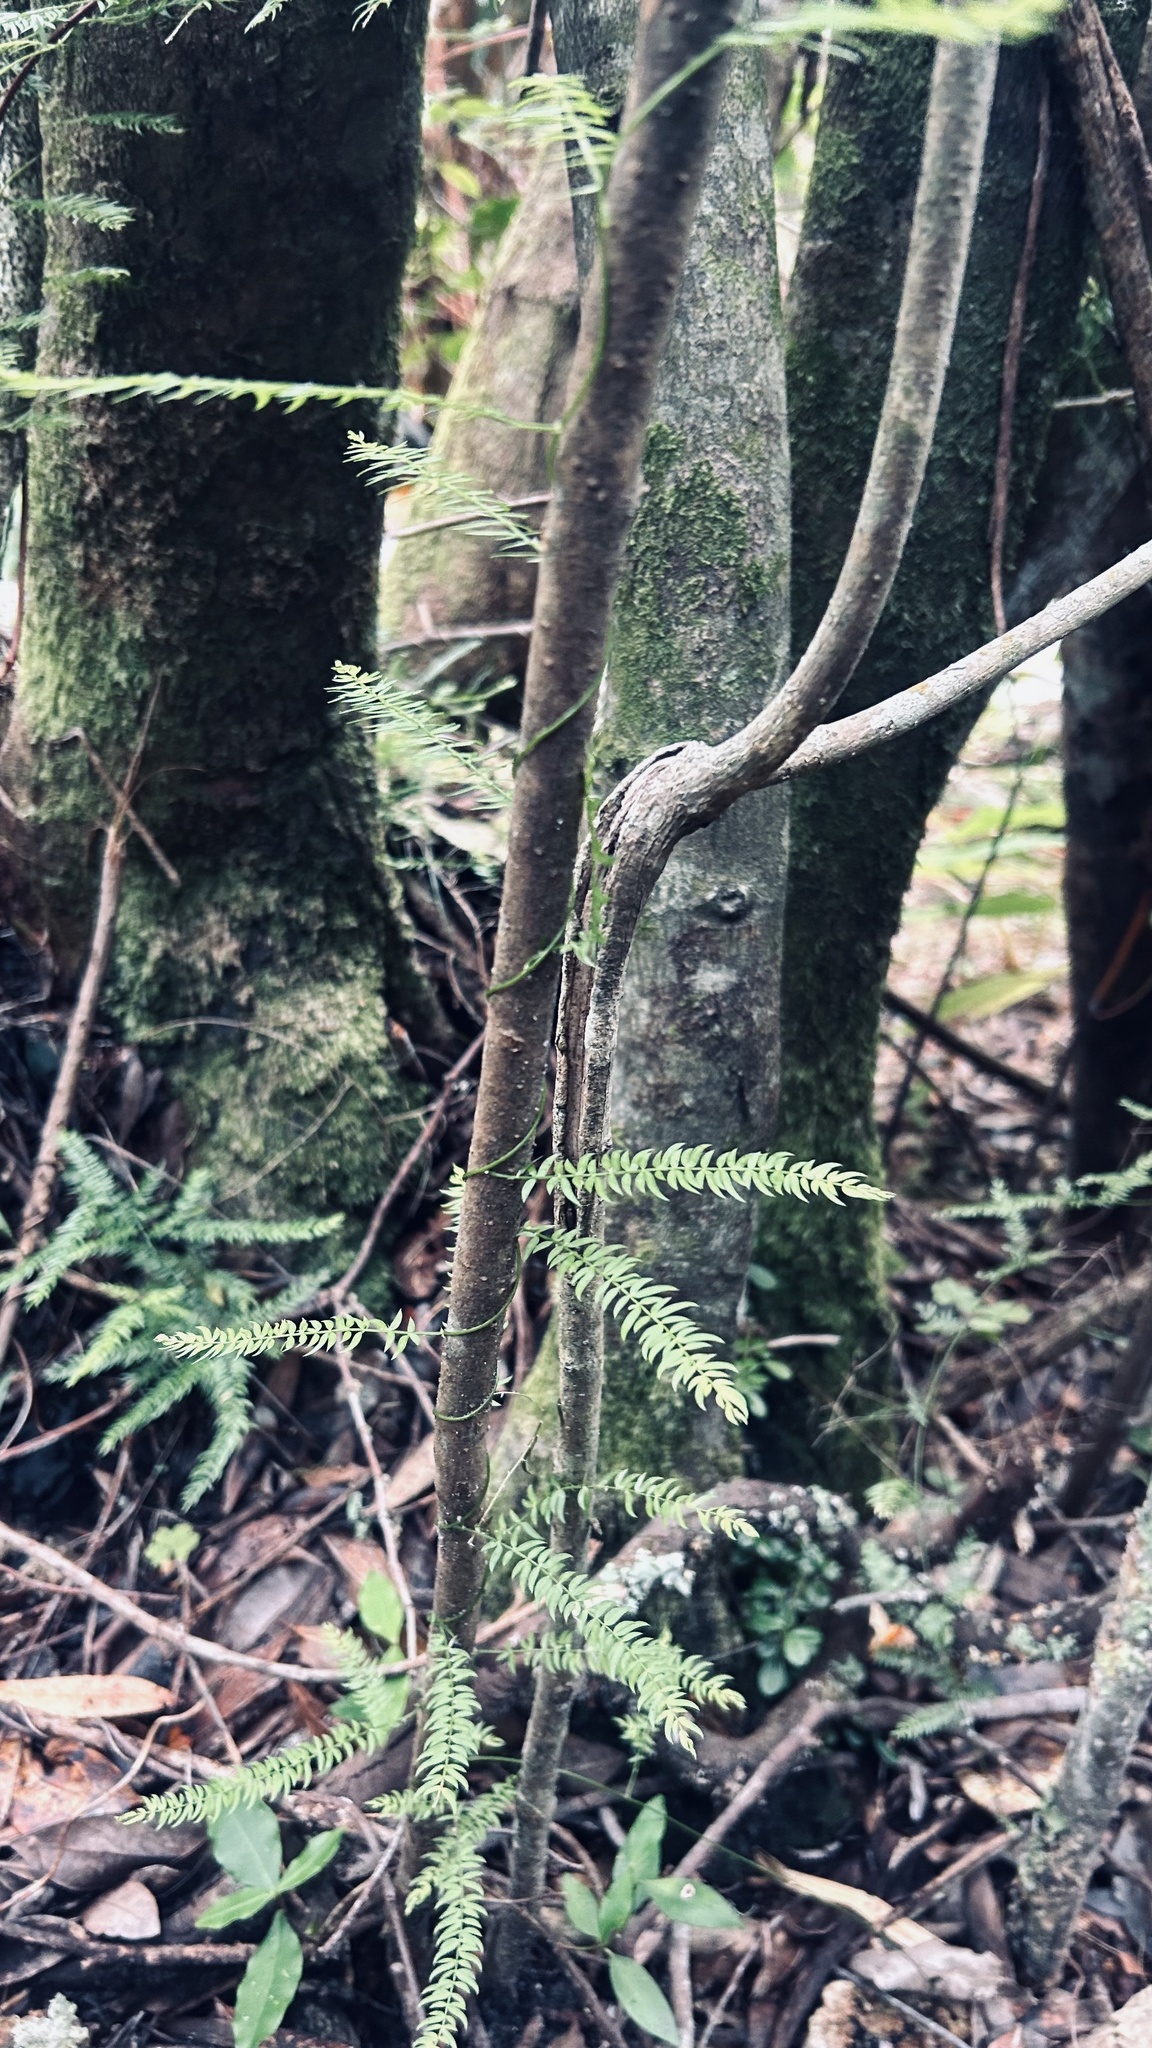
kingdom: Plantae
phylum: Tracheophyta
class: Liliopsida
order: Asparagales
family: Asparagaceae
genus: Asparagus
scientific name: Asparagus scandens
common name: Asparagus-fern
